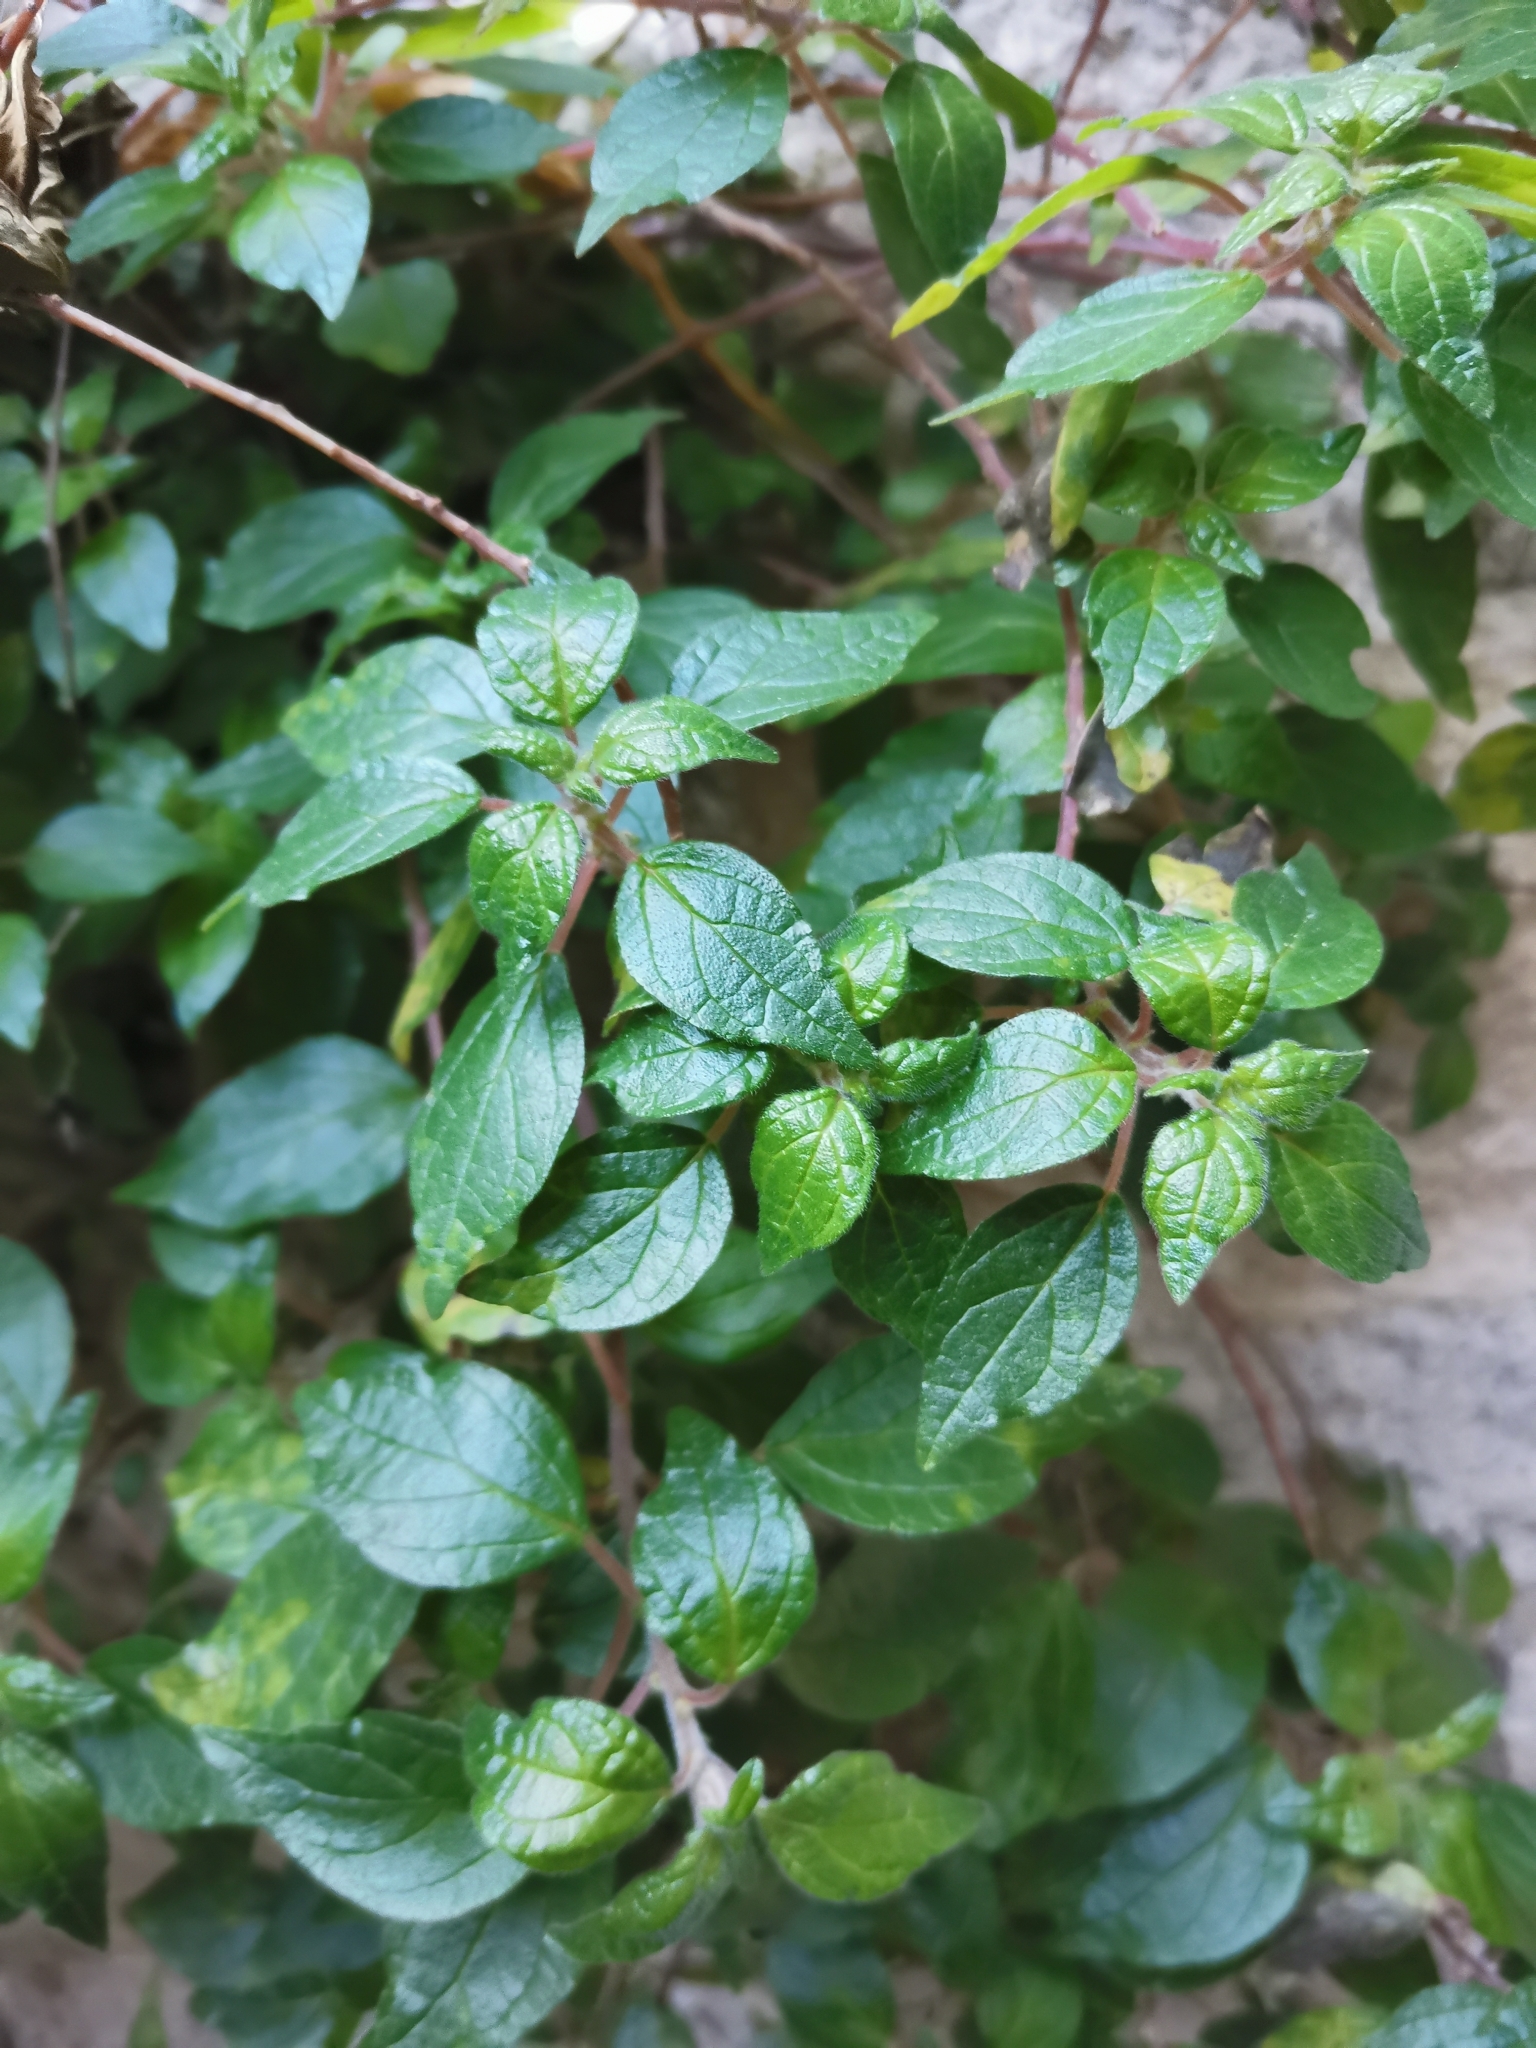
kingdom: Plantae
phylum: Tracheophyta
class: Magnoliopsida
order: Rosales
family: Urticaceae
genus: Parietaria
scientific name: Parietaria judaica
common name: Pellitory-of-the-wall
